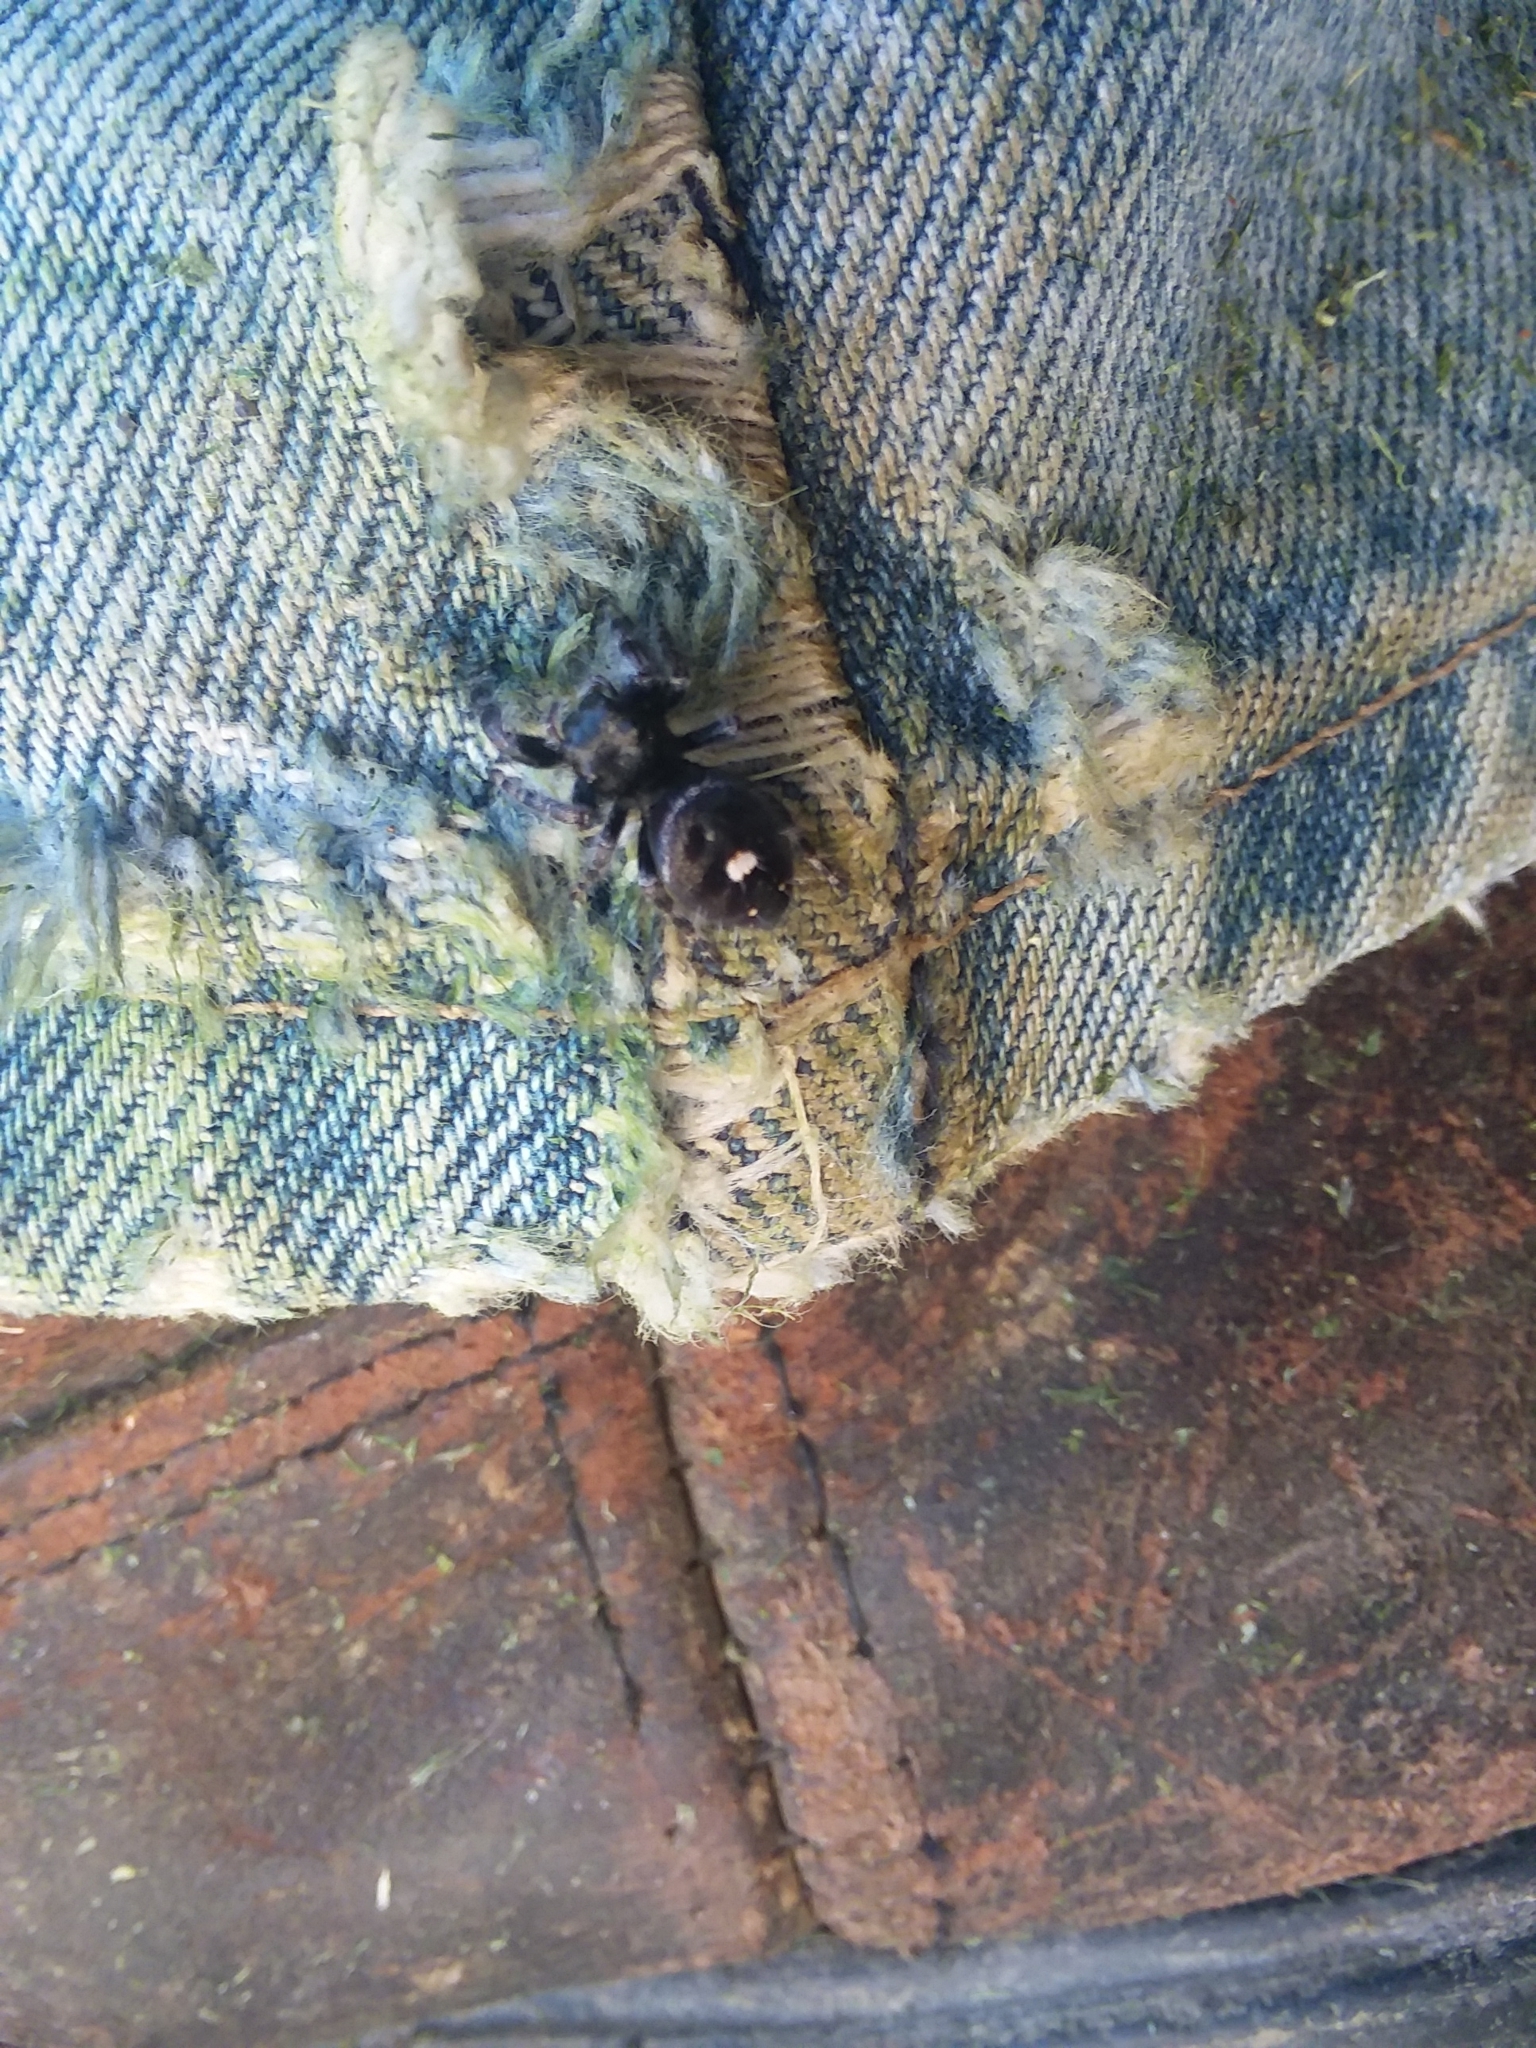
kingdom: Animalia
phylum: Arthropoda
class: Arachnida
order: Araneae
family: Salticidae
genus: Phidippus
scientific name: Phidippus audax
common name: Bold jumper
